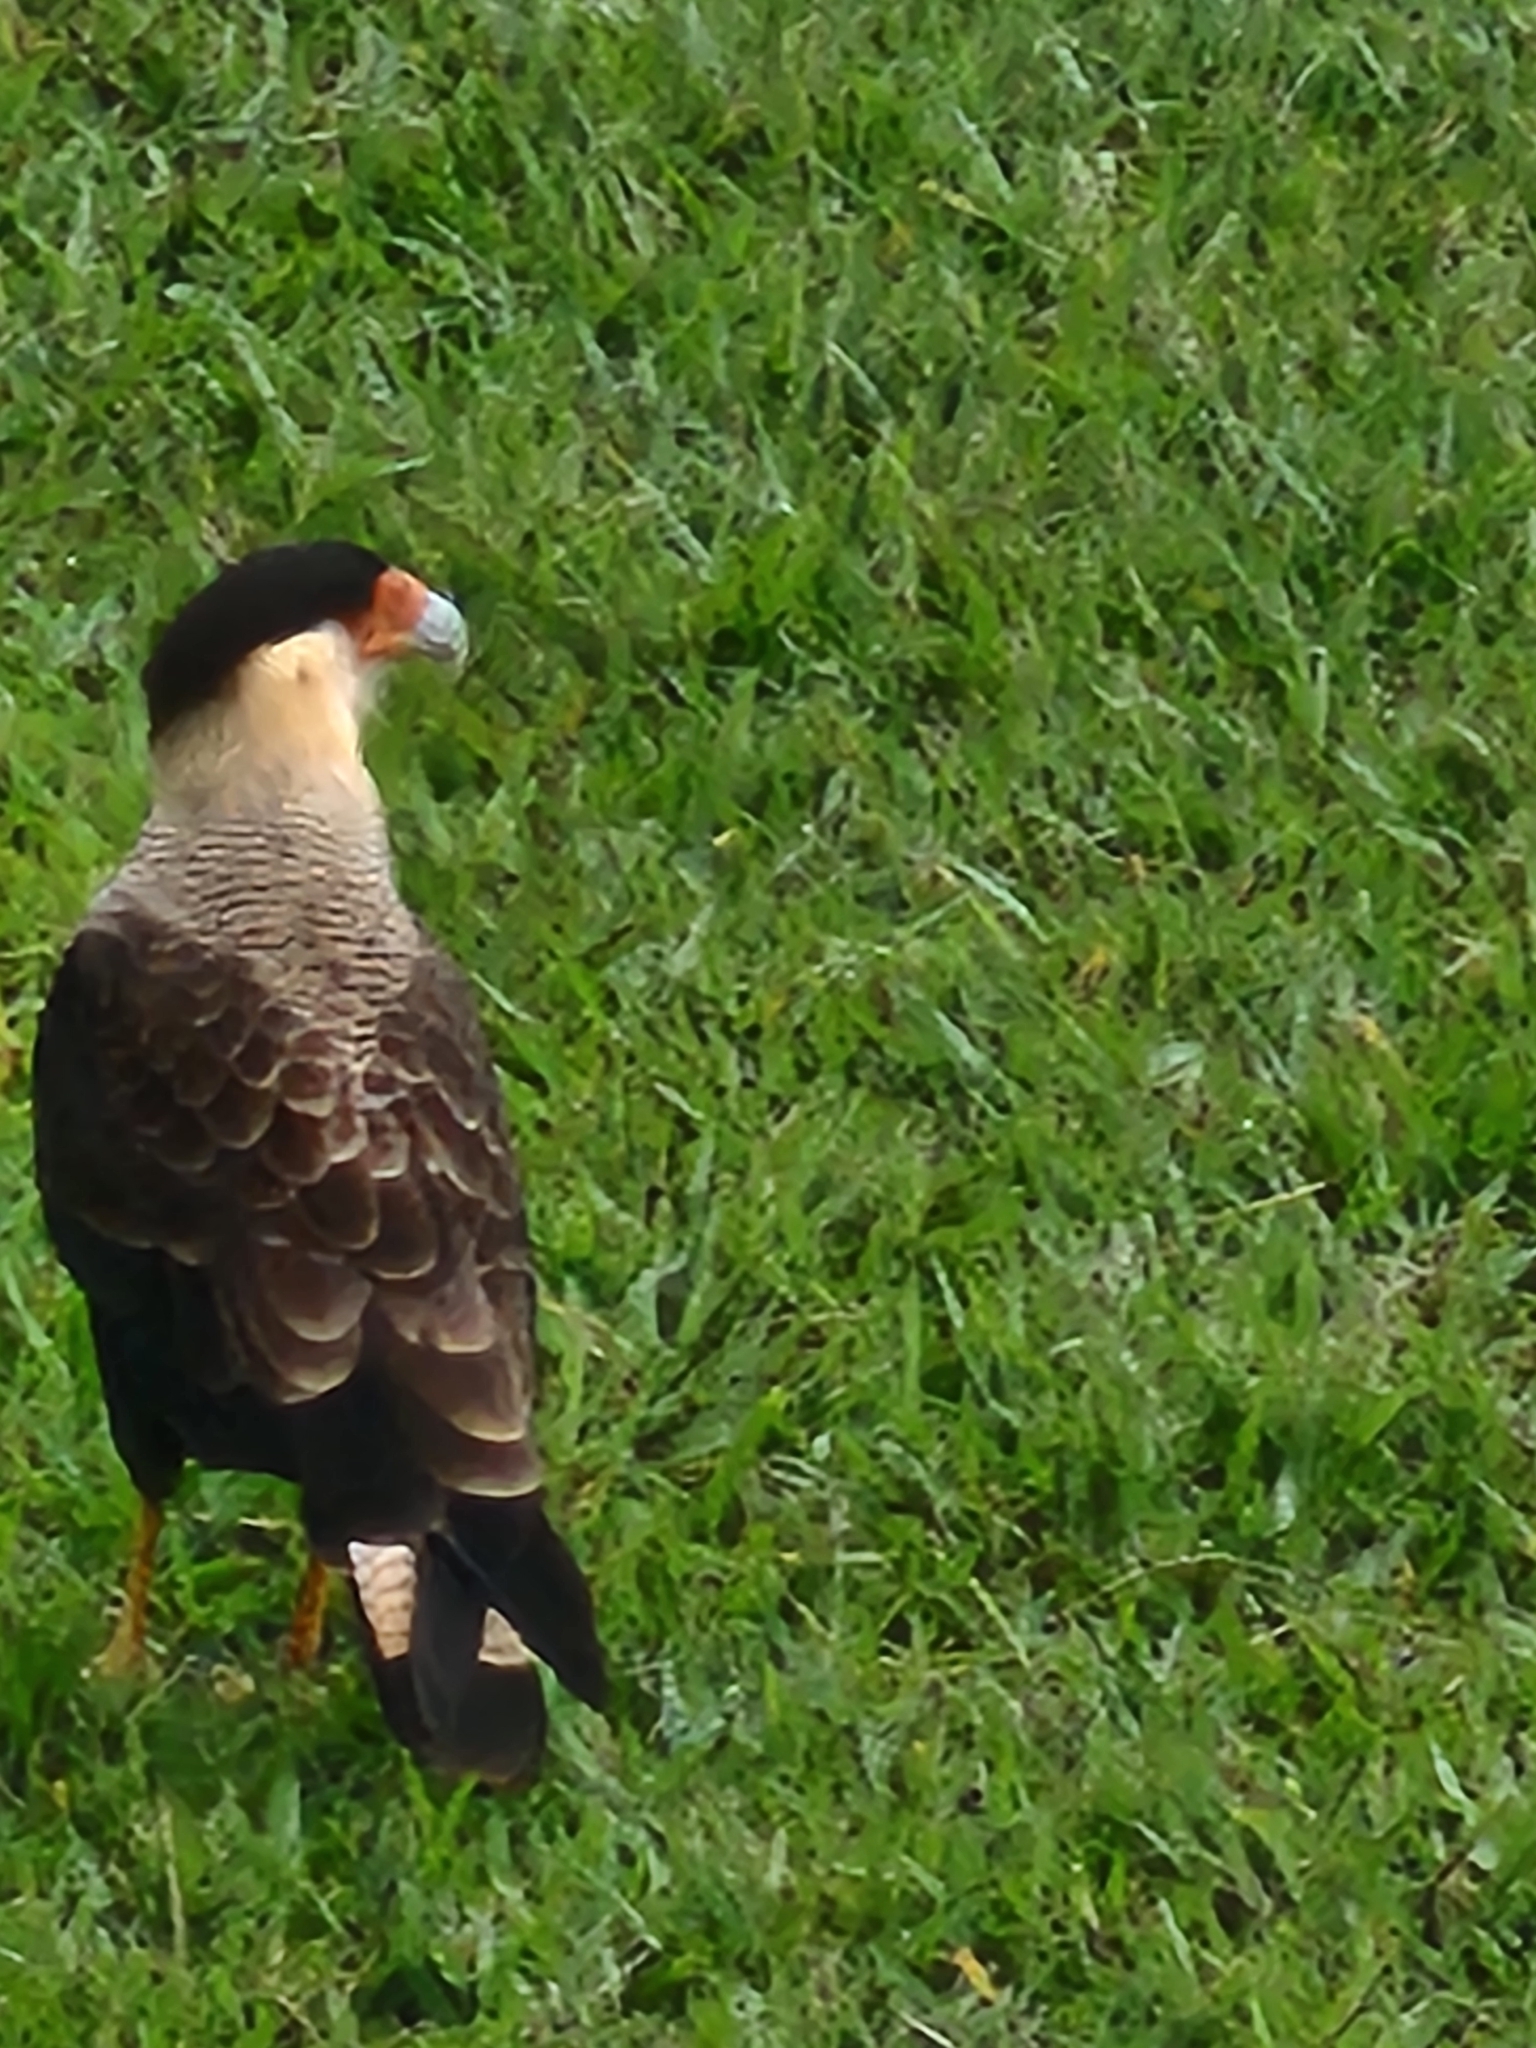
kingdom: Animalia
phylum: Chordata
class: Aves
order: Falconiformes
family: Falconidae
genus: Caracara
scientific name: Caracara plancus
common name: Southern caracara
